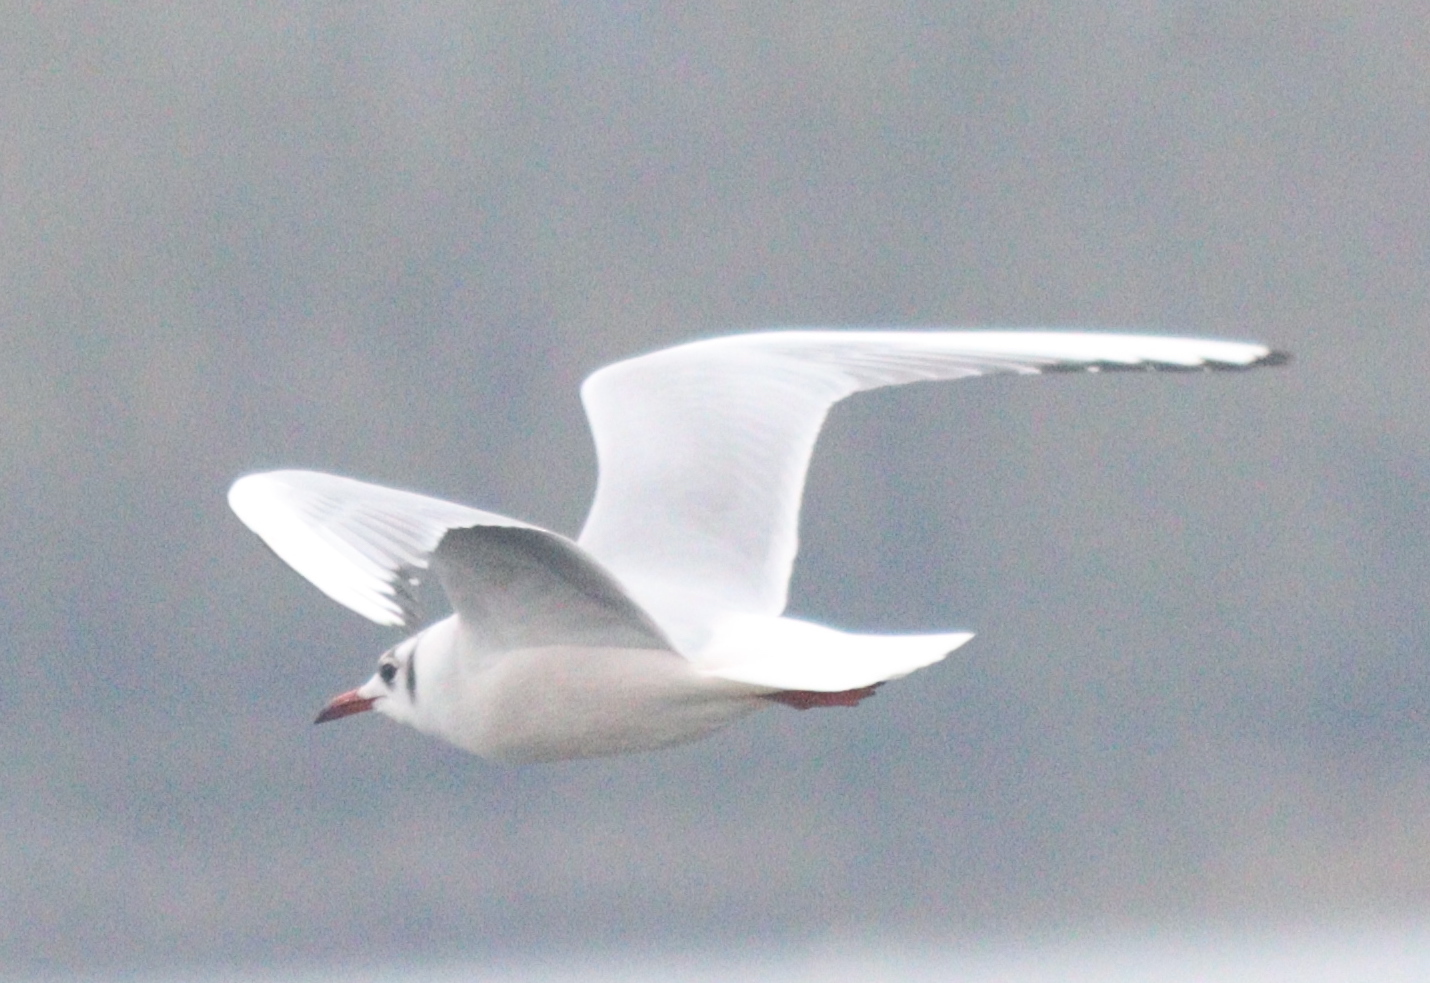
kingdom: Animalia
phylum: Chordata
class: Aves
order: Charadriiformes
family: Laridae
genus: Chroicocephalus
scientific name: Chroicocephalus ridibundus
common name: Black-headed gull
